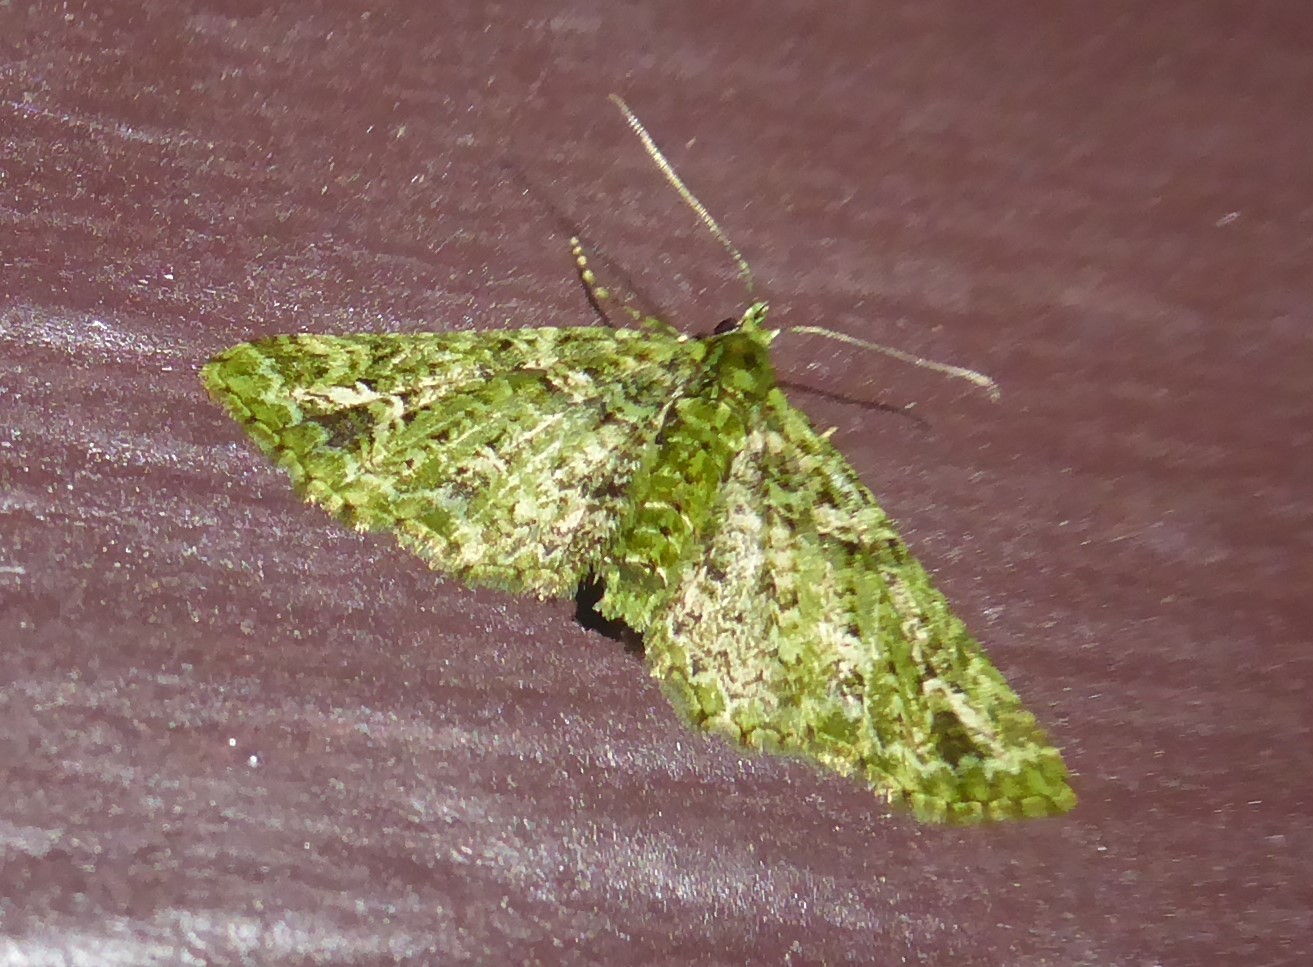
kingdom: Animalia
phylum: Arthropoda
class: Insecta
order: Lepidoptera
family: Geometridae
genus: Pasiphila
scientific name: Pasiphila muscosata
